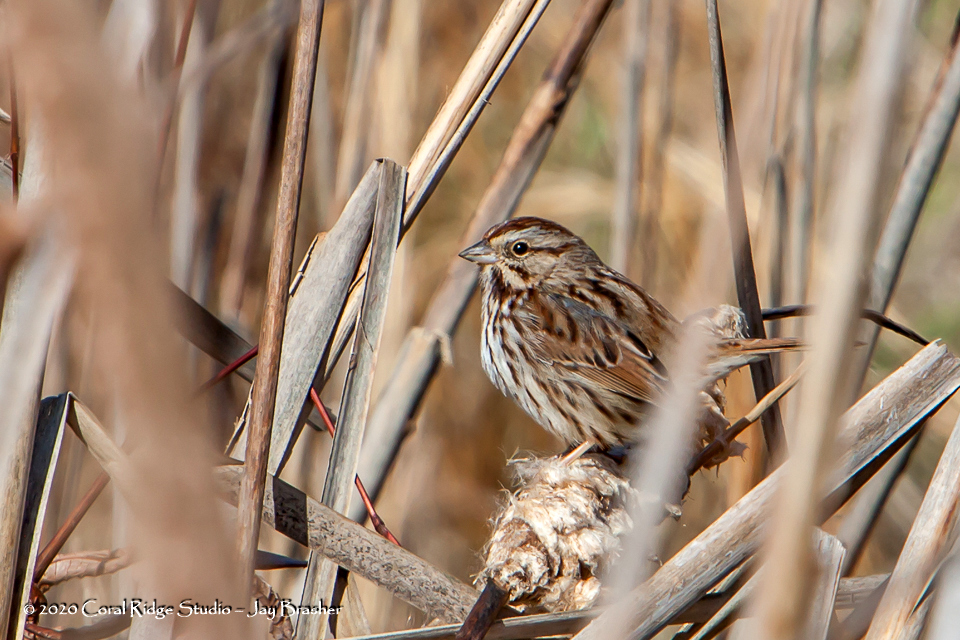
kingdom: Animalia
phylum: Chordata
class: Aves
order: Passeriformes
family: Passerellidae
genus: Melospiza
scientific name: Melospiza melodia
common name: Song sparrow
